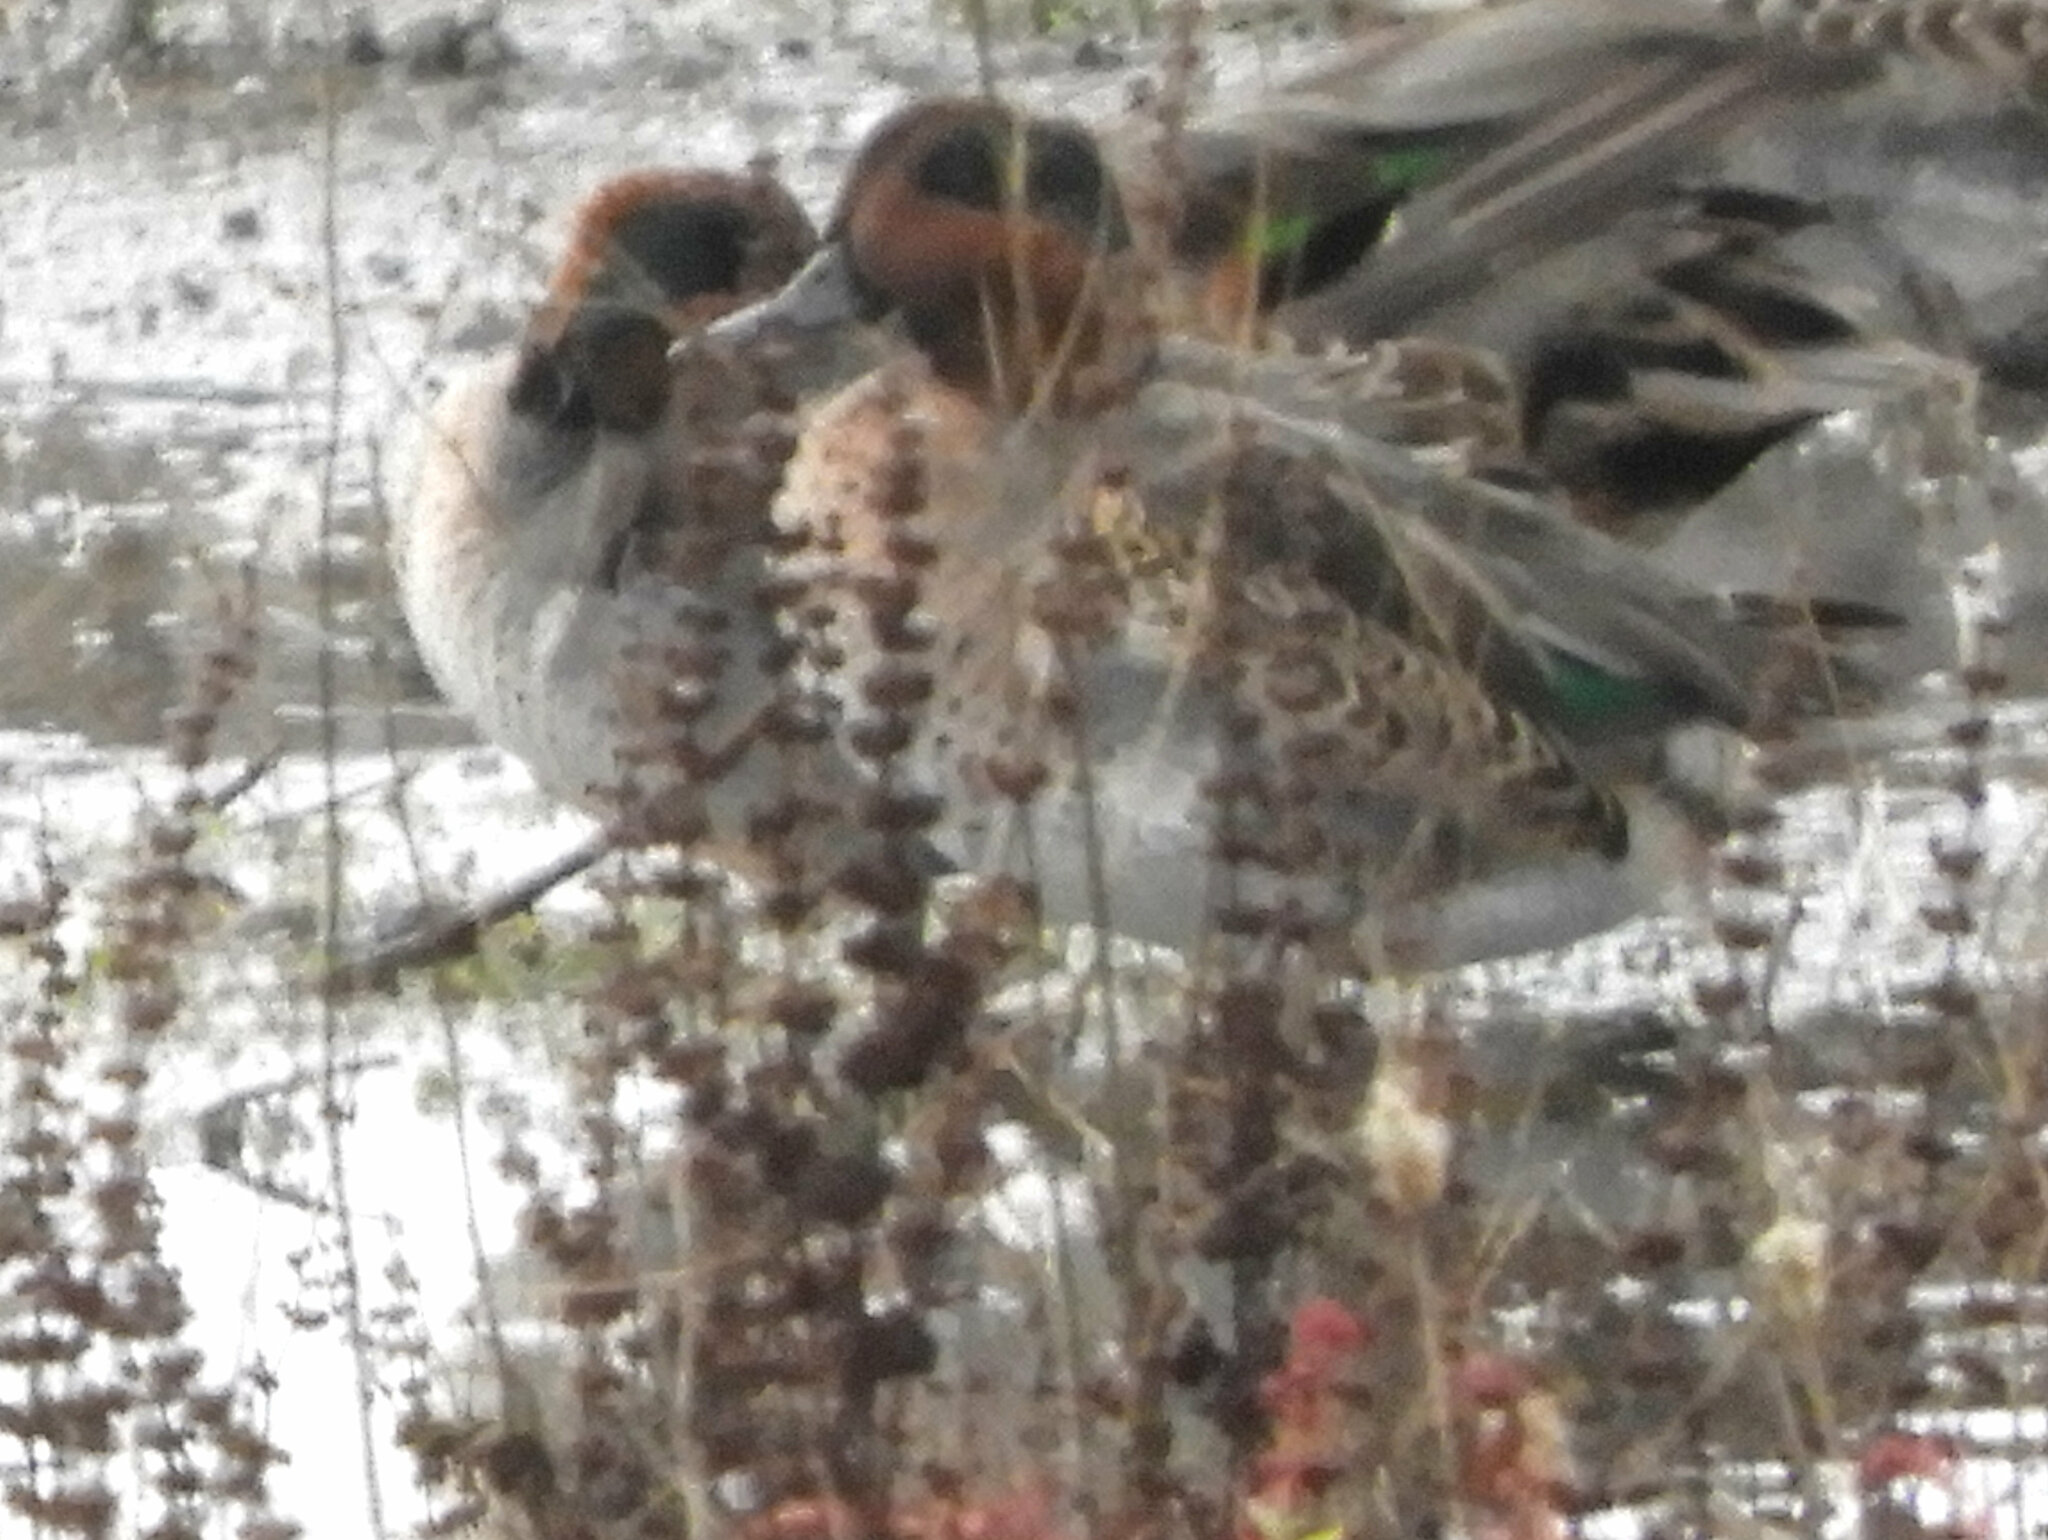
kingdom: Animalia
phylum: Chordata
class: Aves
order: Anseriformes
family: Anatidae
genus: Anas
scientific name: Anas crecca
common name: Eurasian teal
